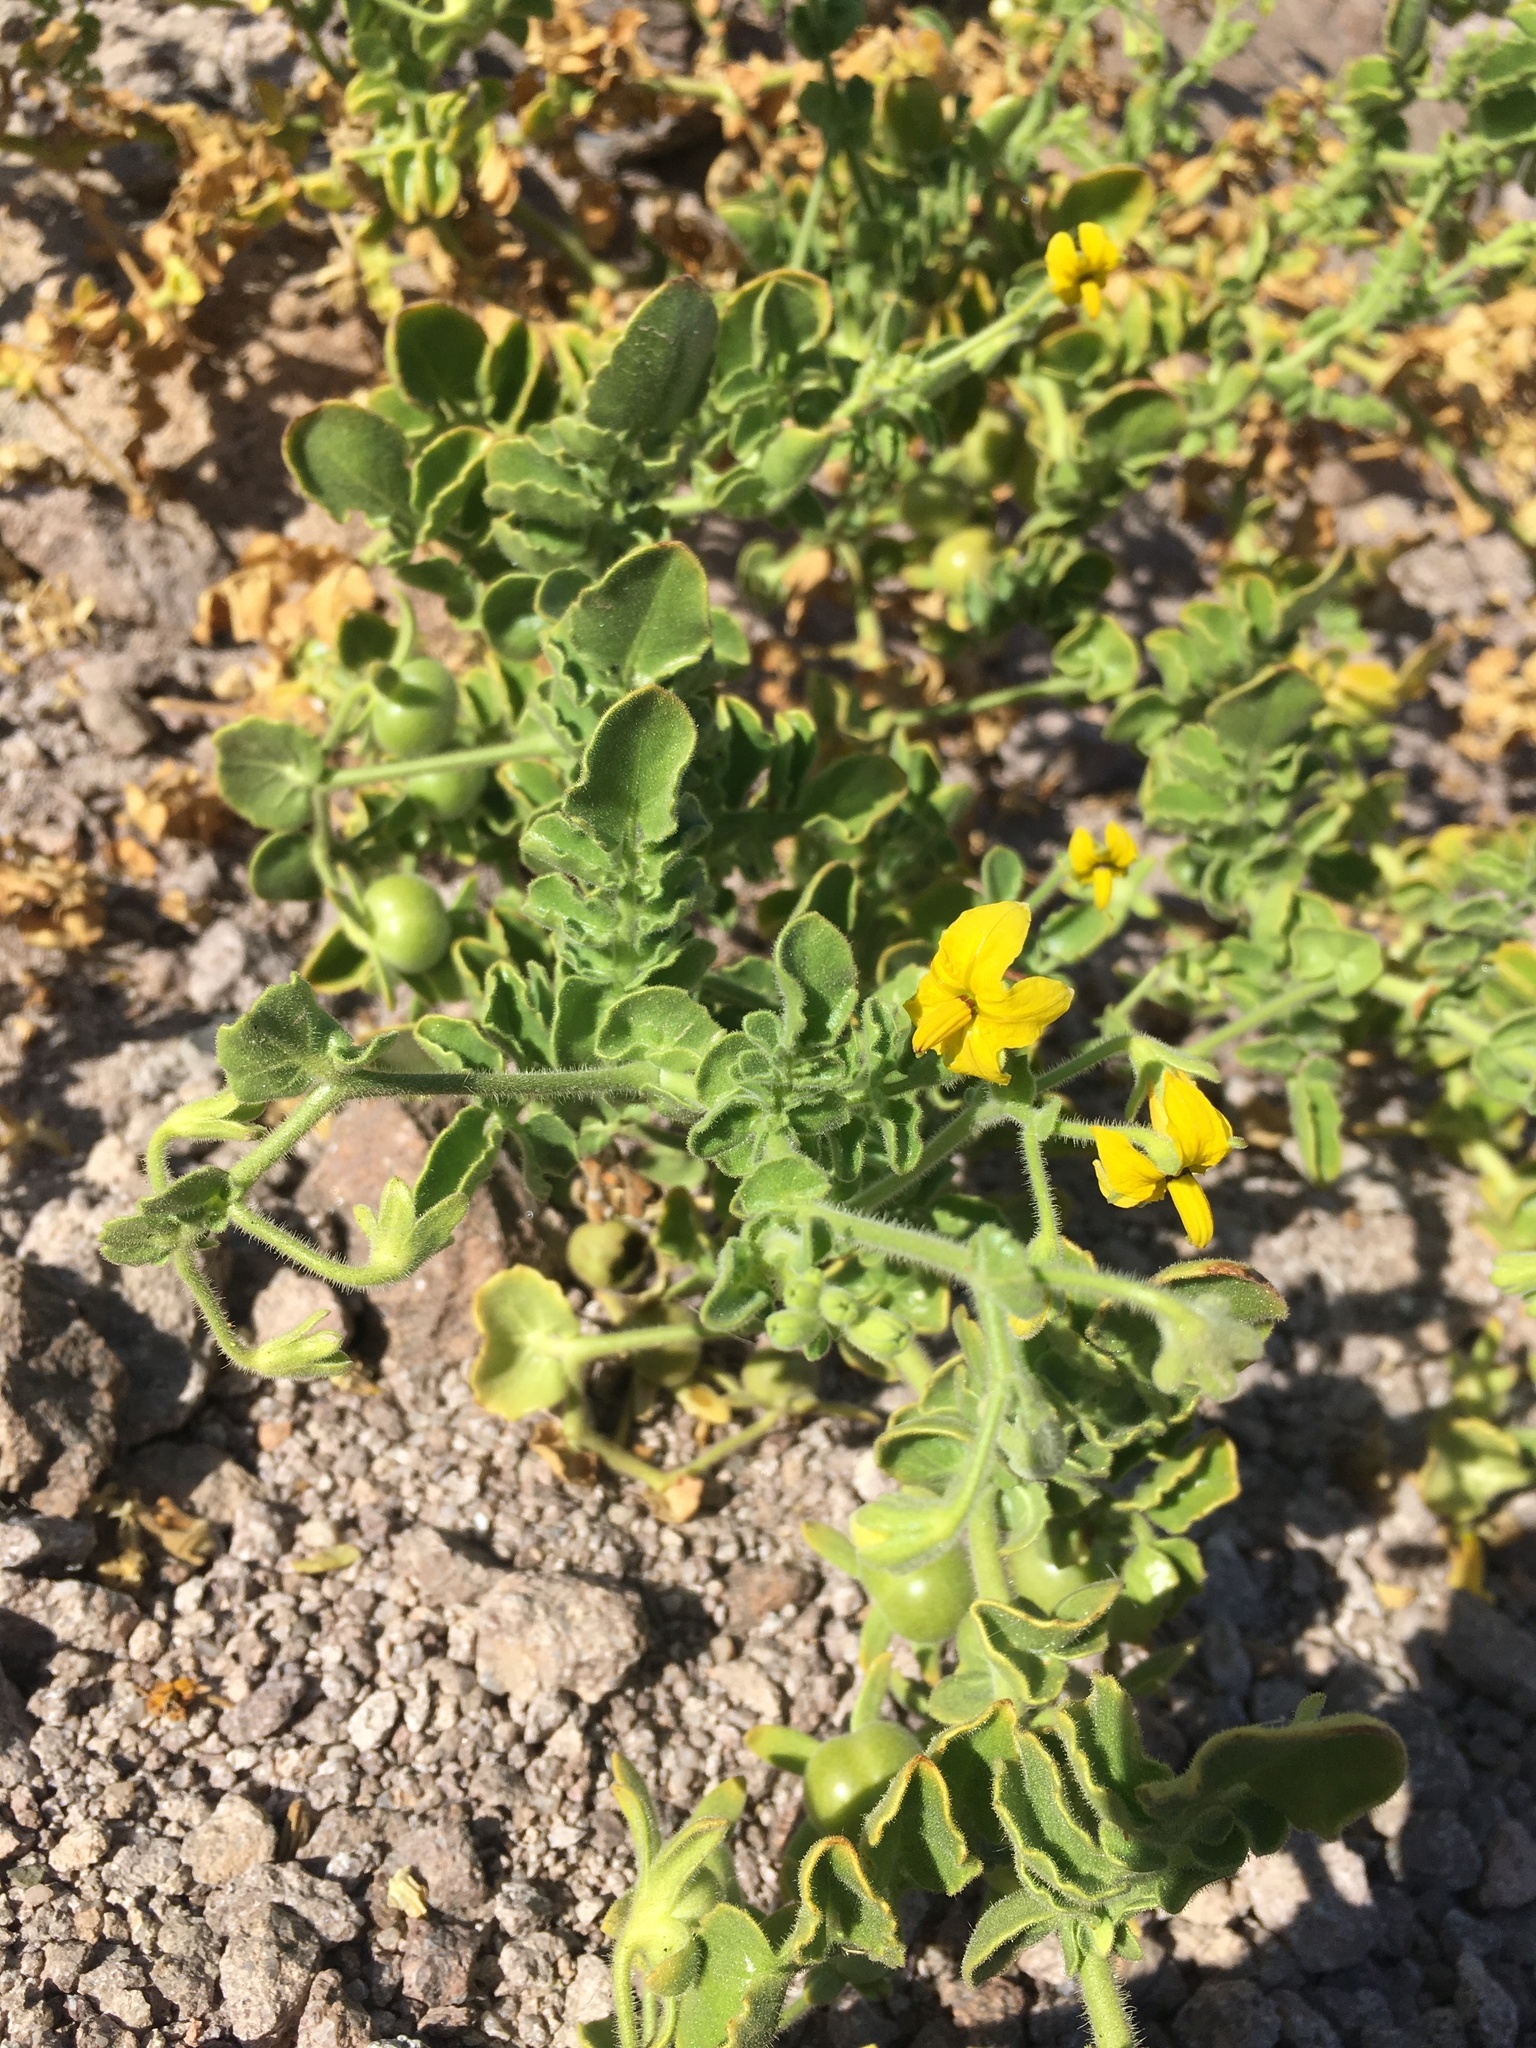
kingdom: Plantae
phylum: Tracheophyta
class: Magnoliopsida
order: Solanales
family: Solanaceae
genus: Solanum
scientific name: Solanum pennellii
